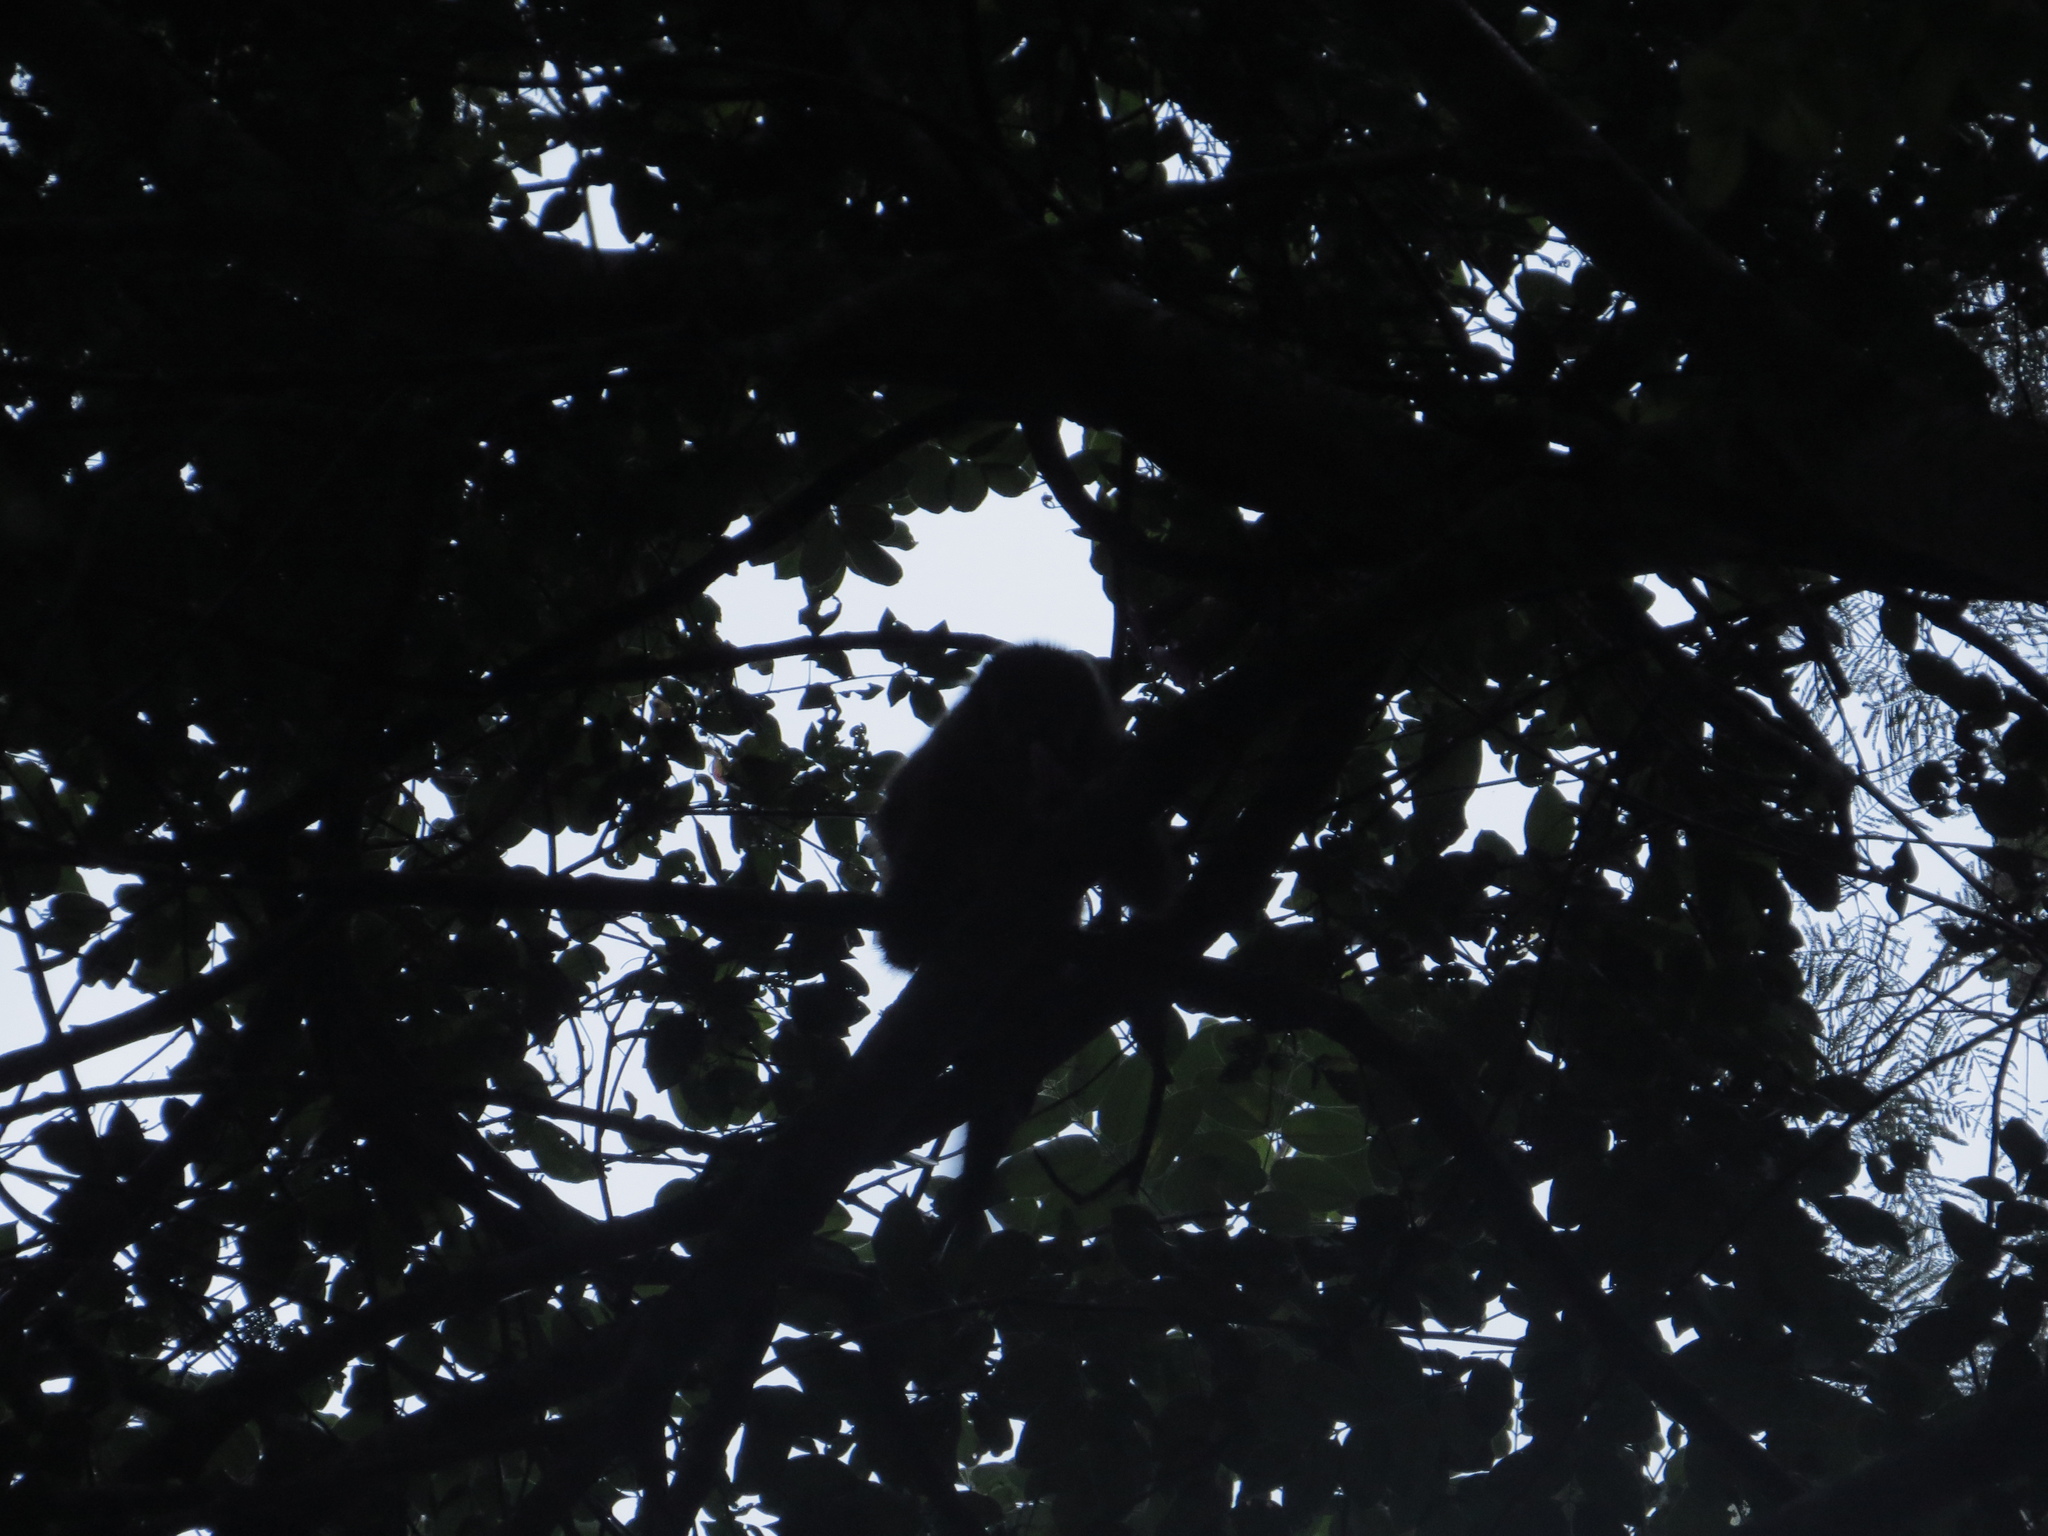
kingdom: Animalia
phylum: Chordata
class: Mammalia
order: Primates
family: Cebidae
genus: Sapajus
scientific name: Sapajus cay
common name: Hooded capuchin
